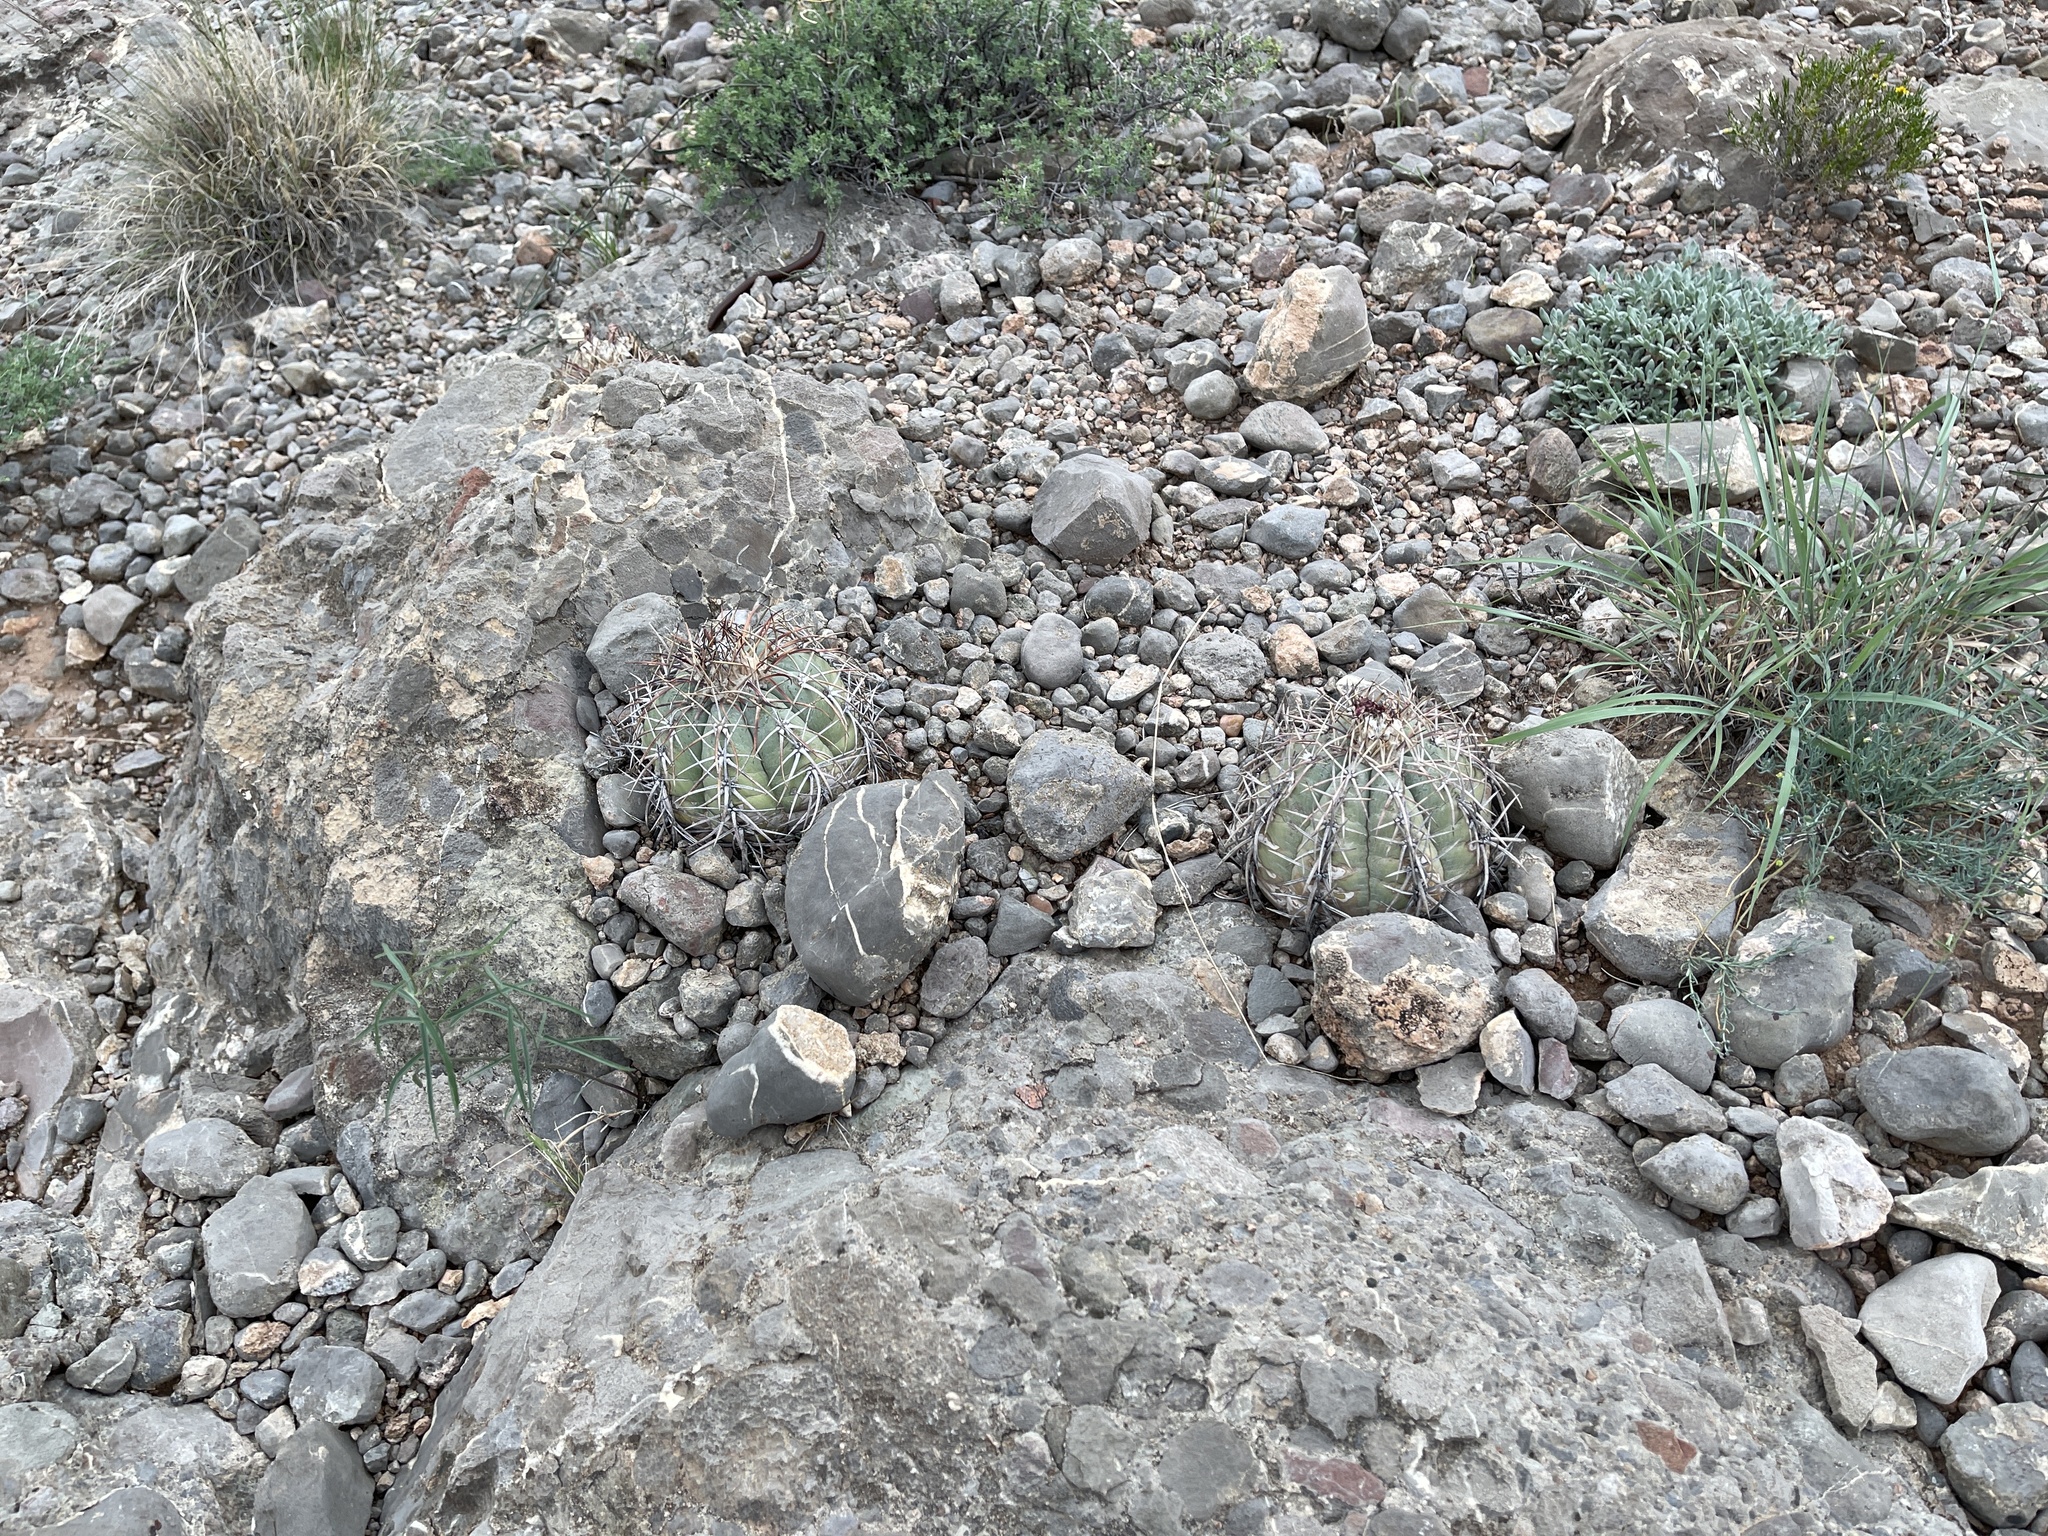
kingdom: Plantae
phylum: Tracheophyta
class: Magnoliopsida
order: Caryophyllales
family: Cactaceae
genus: Echinocactus
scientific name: Echinocactus horizonthalonius
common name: Devilshead
